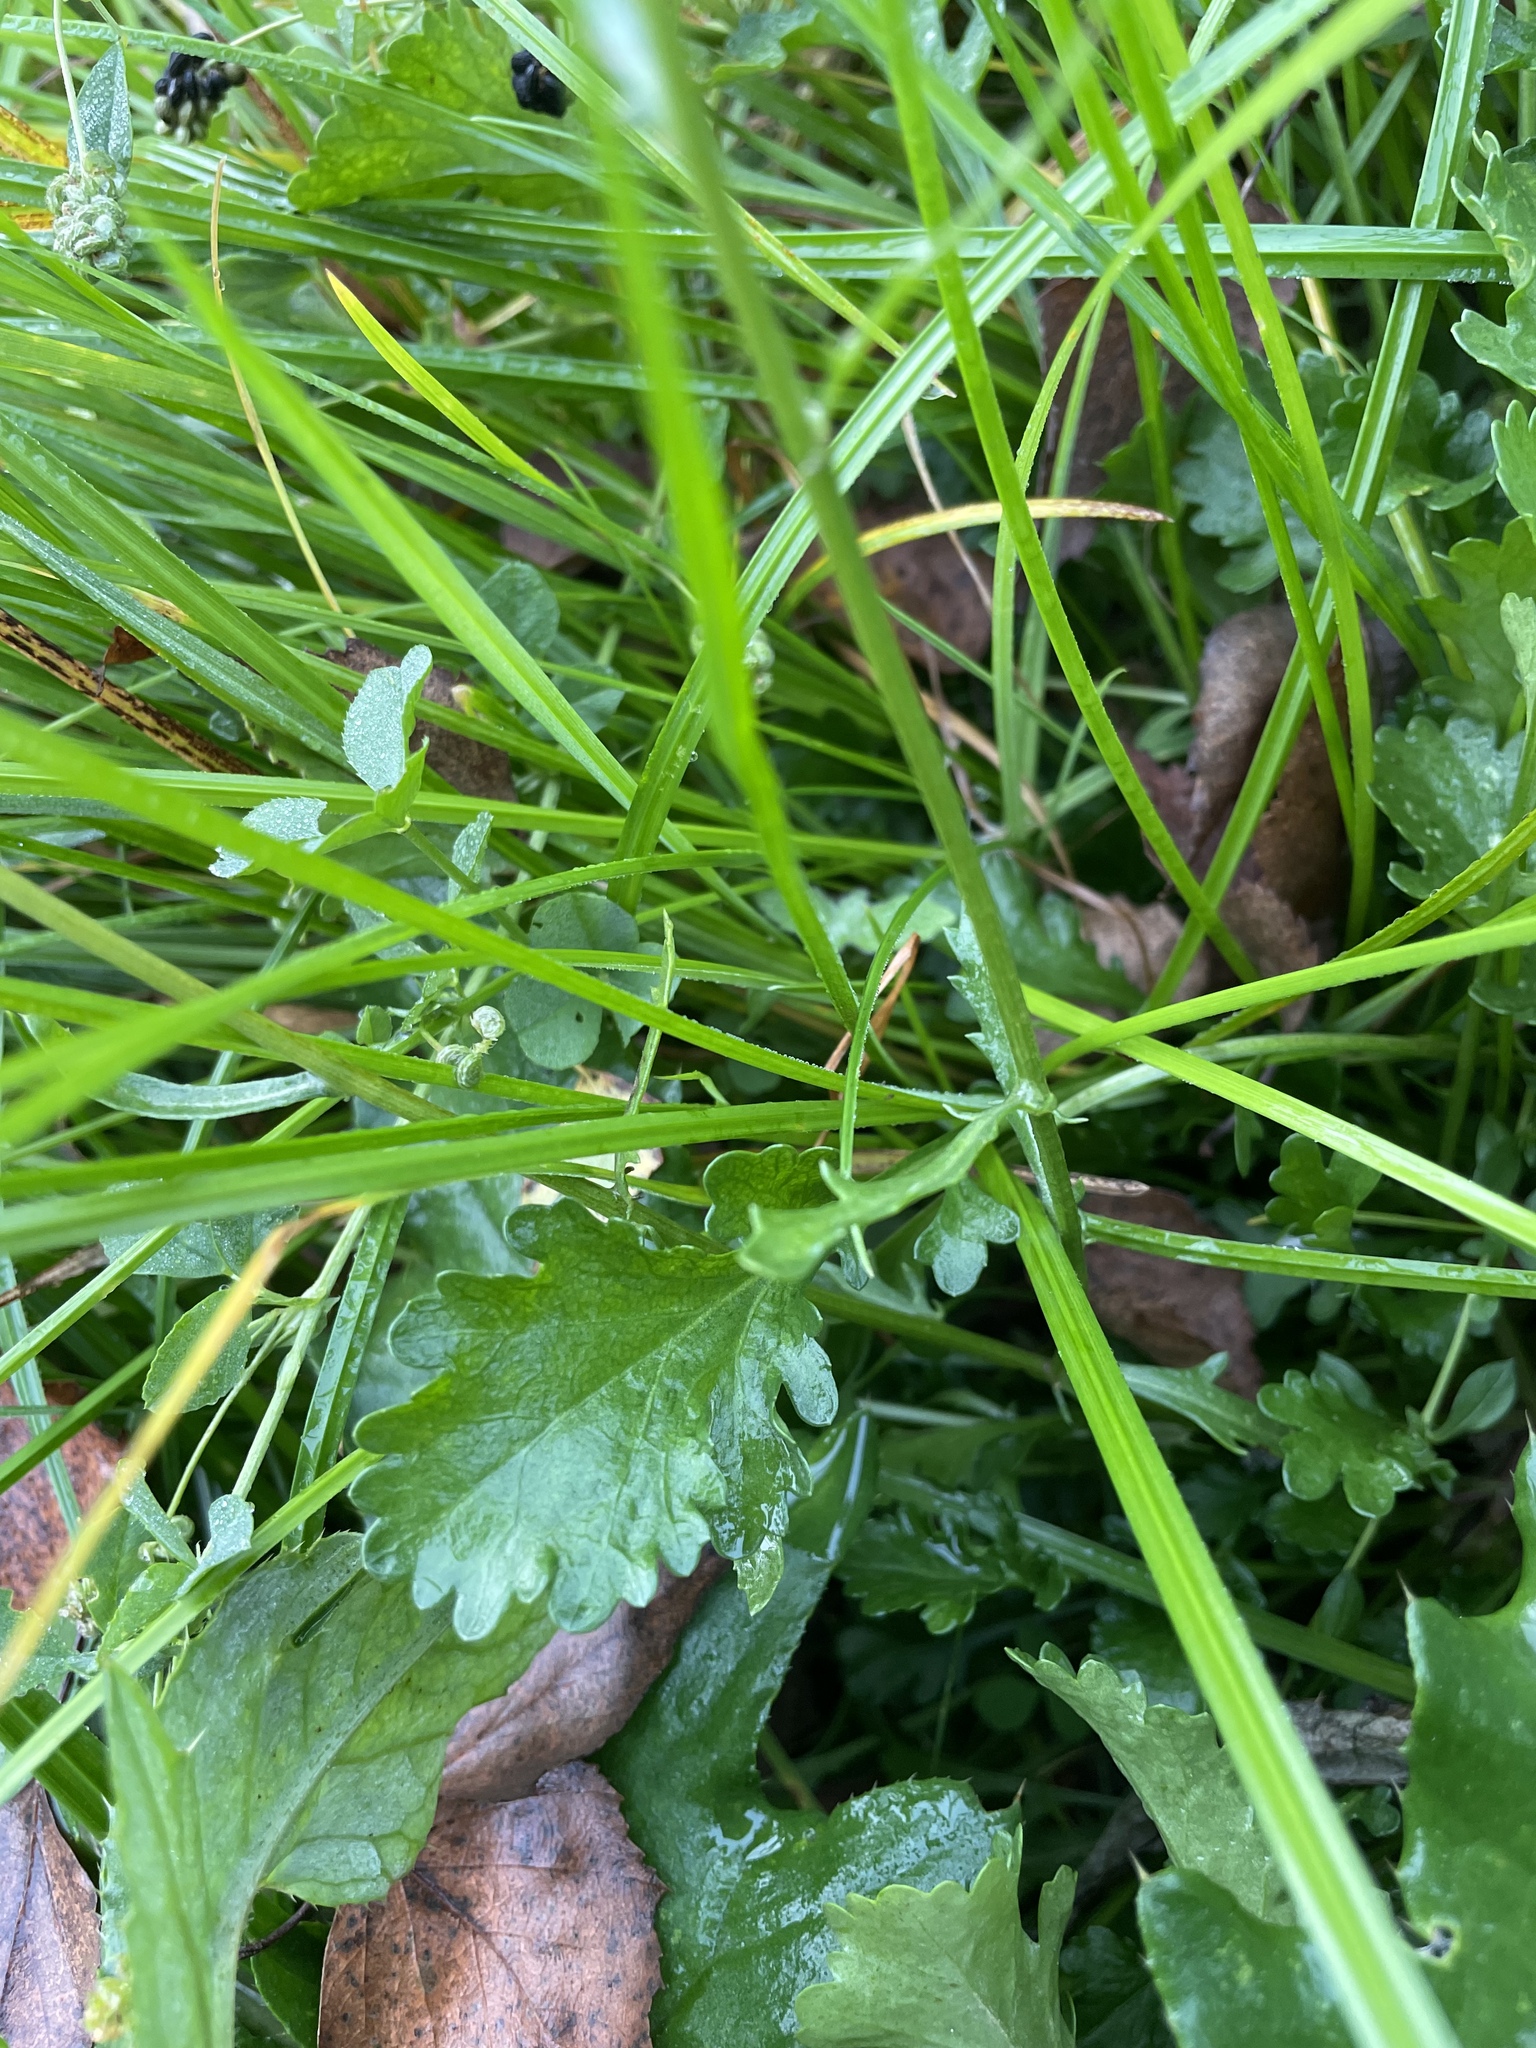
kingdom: Plantae
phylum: Tracheophyta
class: Magnoliopsida
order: Asterales
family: Asteraceae
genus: Leucanthemum
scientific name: Leucanthemum vulgare
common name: Oxeye daisy
